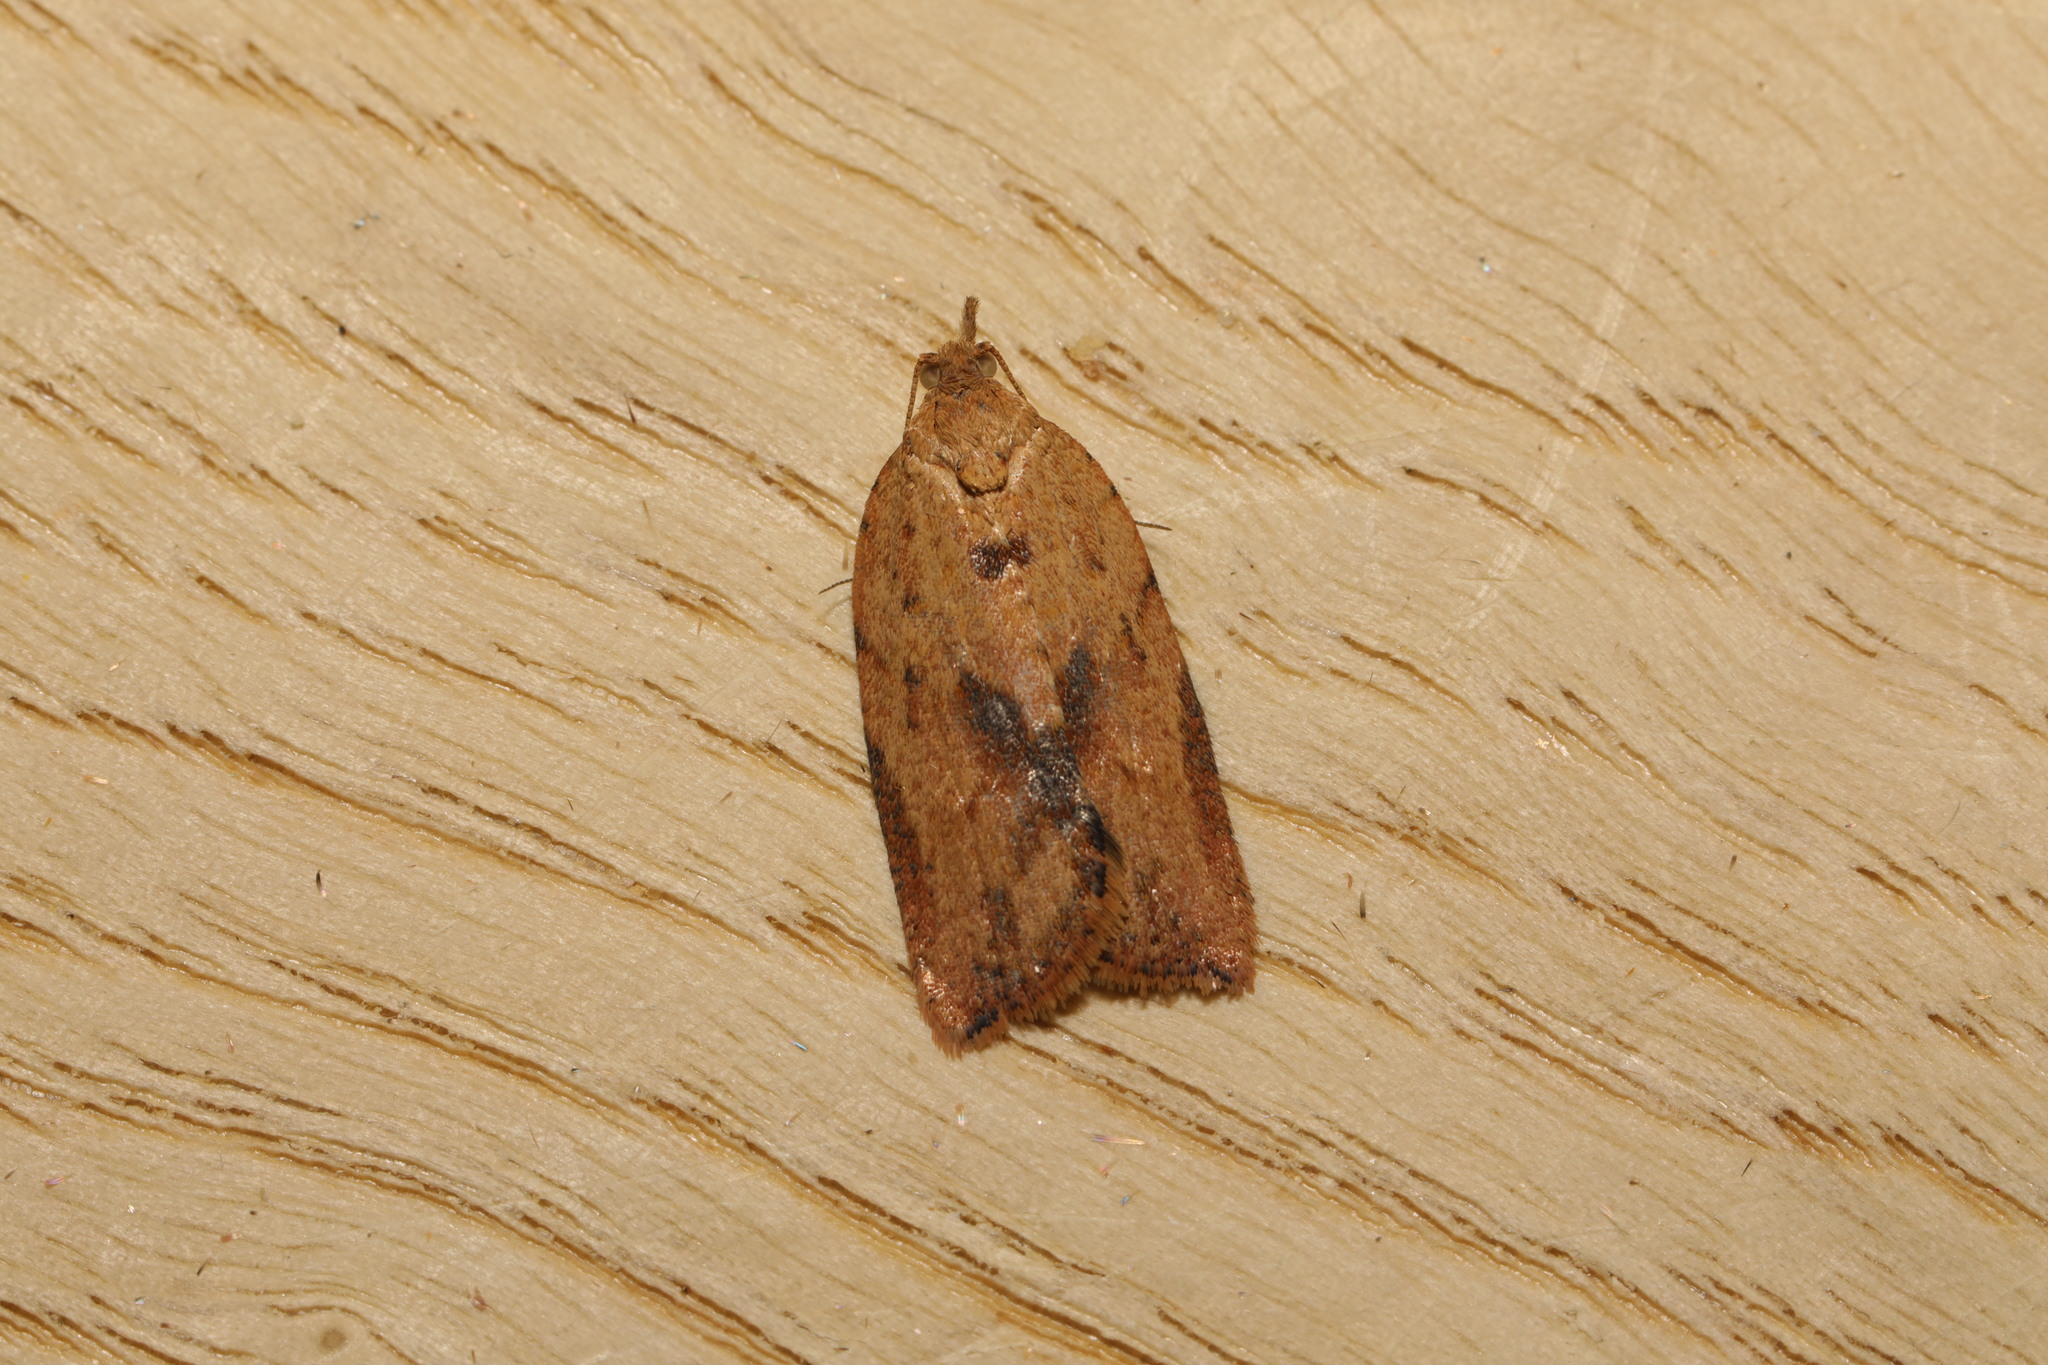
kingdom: Animalia
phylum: Arthropoda
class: Insecta
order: Lepidoptera
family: Tortricidae
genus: Epiphyas
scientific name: Epiphyas postvittana
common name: Light brown apple moth
